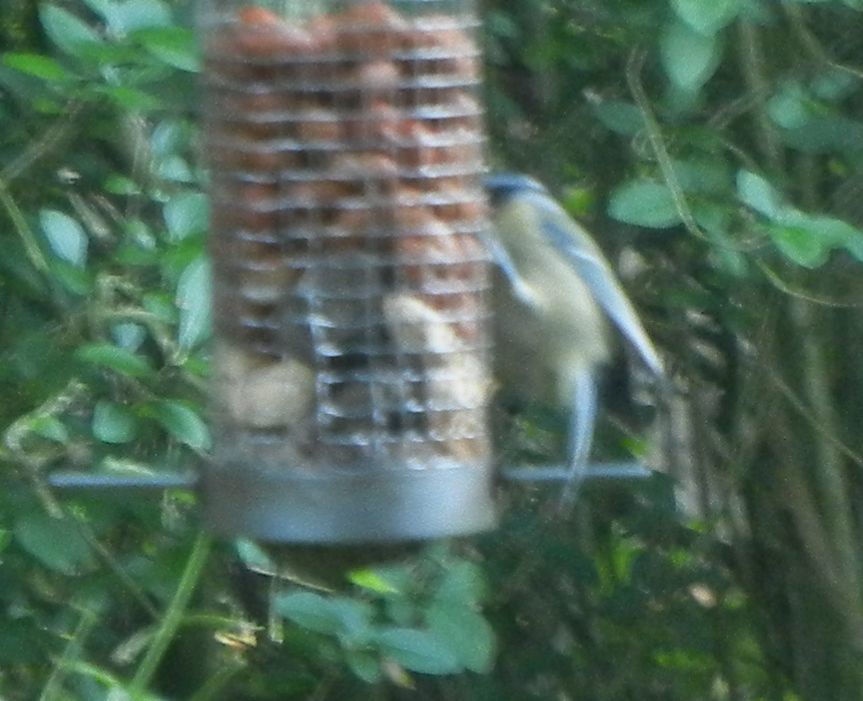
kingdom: Animalia
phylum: Chordata
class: Aves
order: Passeriformes
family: Paridae
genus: Cyanistes
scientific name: Cyanistes caeruleus
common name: Eurasian blue tit
